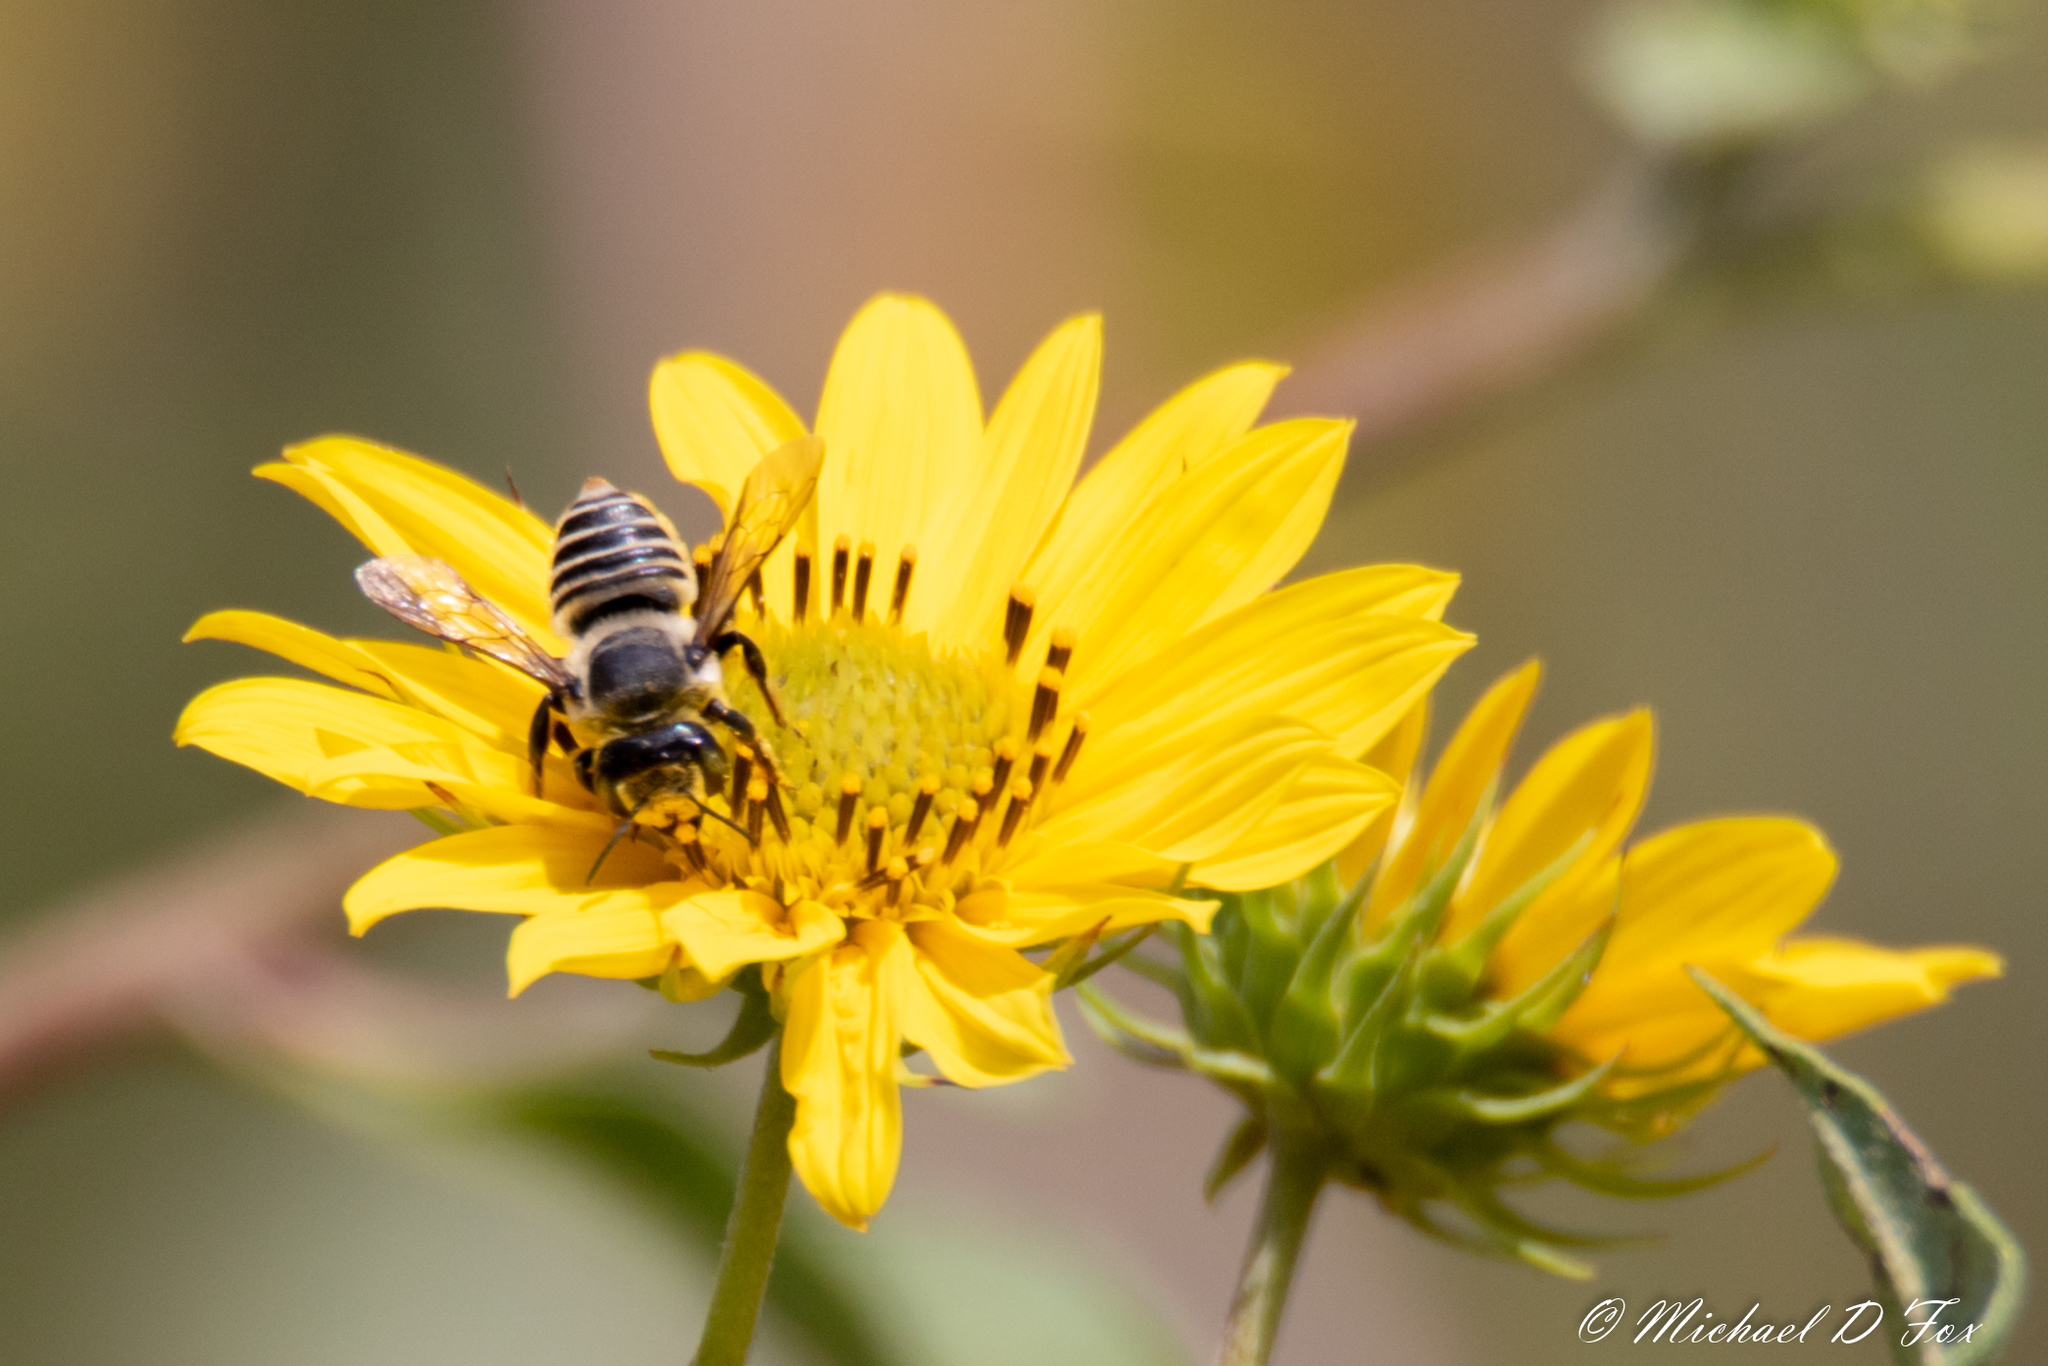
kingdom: Animalia
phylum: Arthropoda
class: Insecta
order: Hymenoptera
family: Megachilidae
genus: Megachile
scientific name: Megachile parallela
